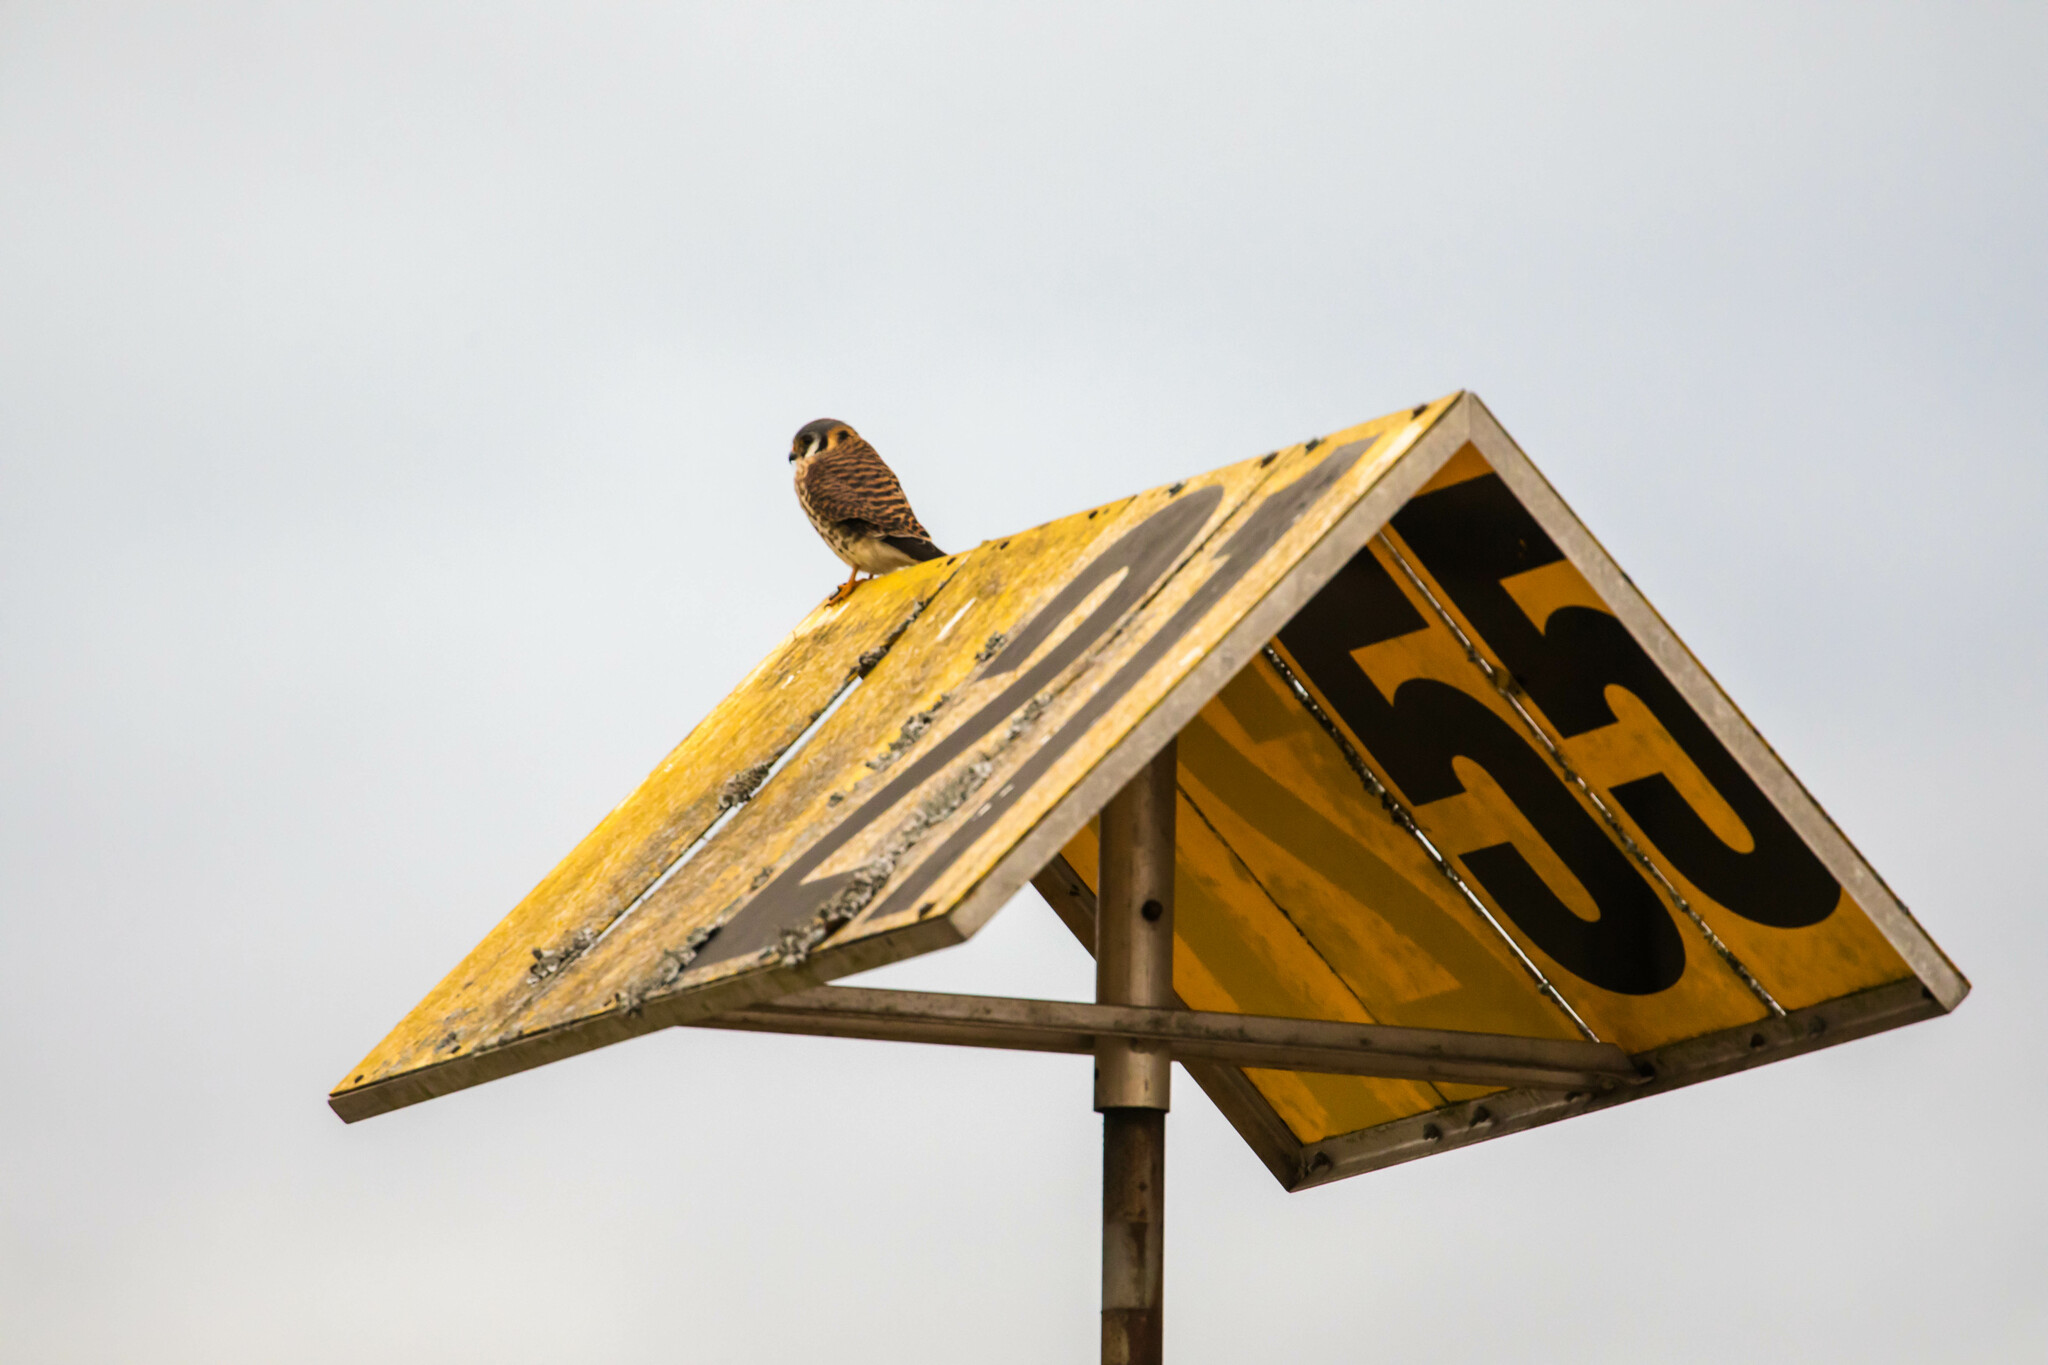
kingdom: Animalia
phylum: Chordata
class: Aves
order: Falconiformes
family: Falconidae
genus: Falco
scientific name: Falco sparverius
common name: American kestrel
